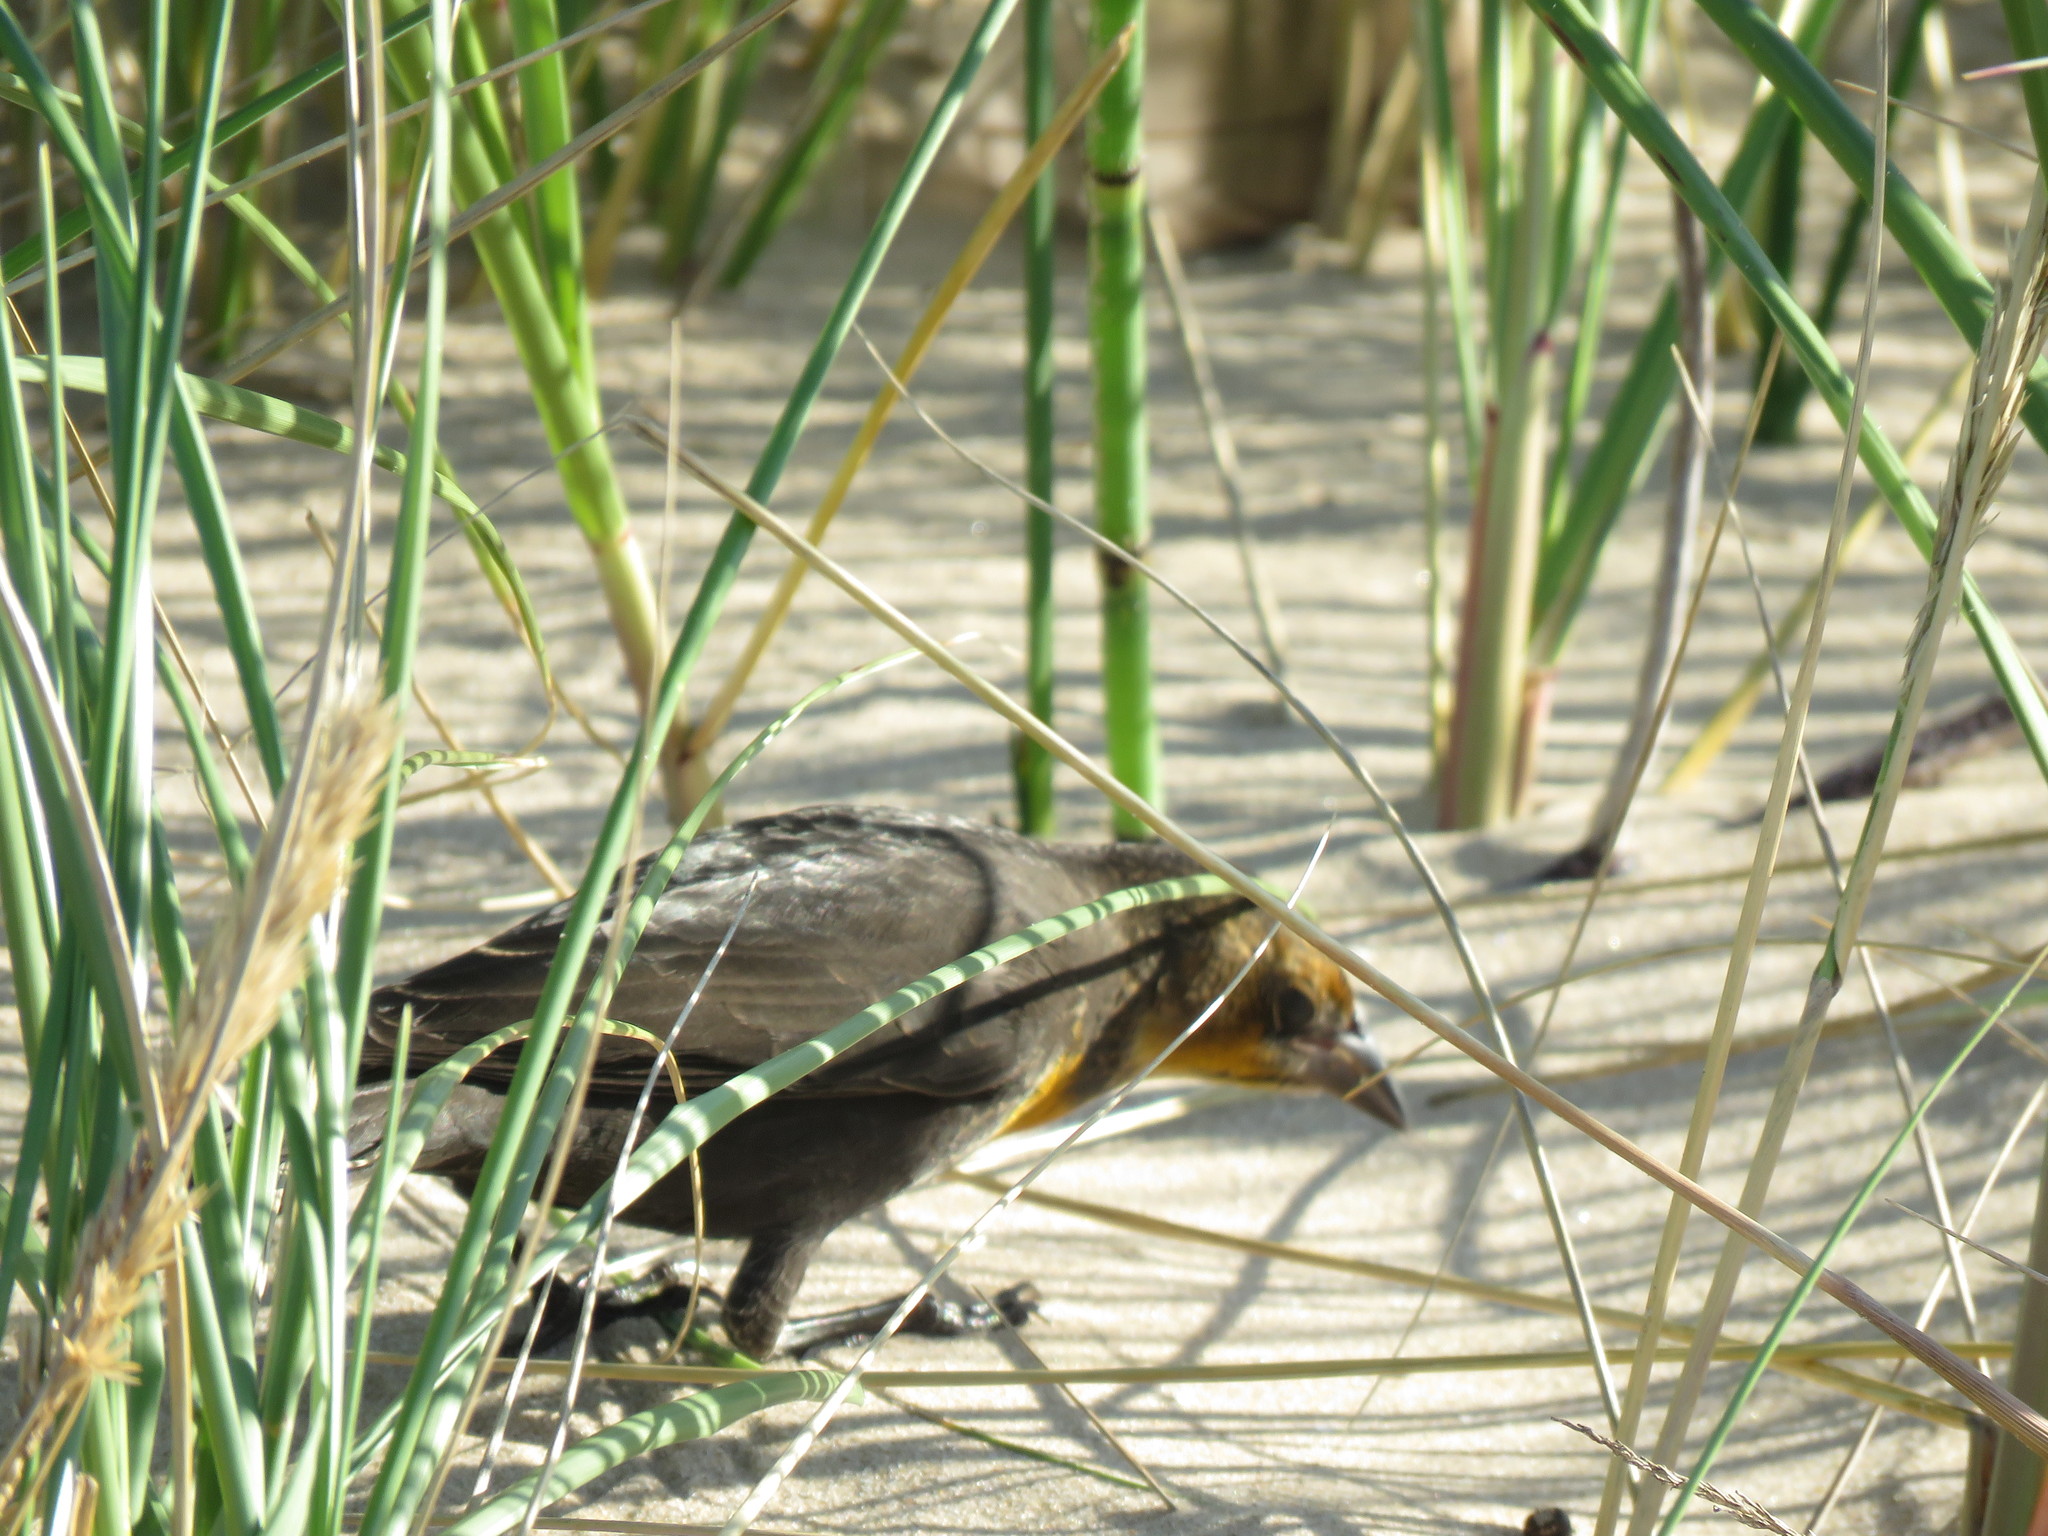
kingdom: Animalia
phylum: Chordata
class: Aves
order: Passeriformes
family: Icteridae
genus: Xanthocephalus
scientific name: Xanthocephalus xanthocephalus
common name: Yellow-headed blackbird
